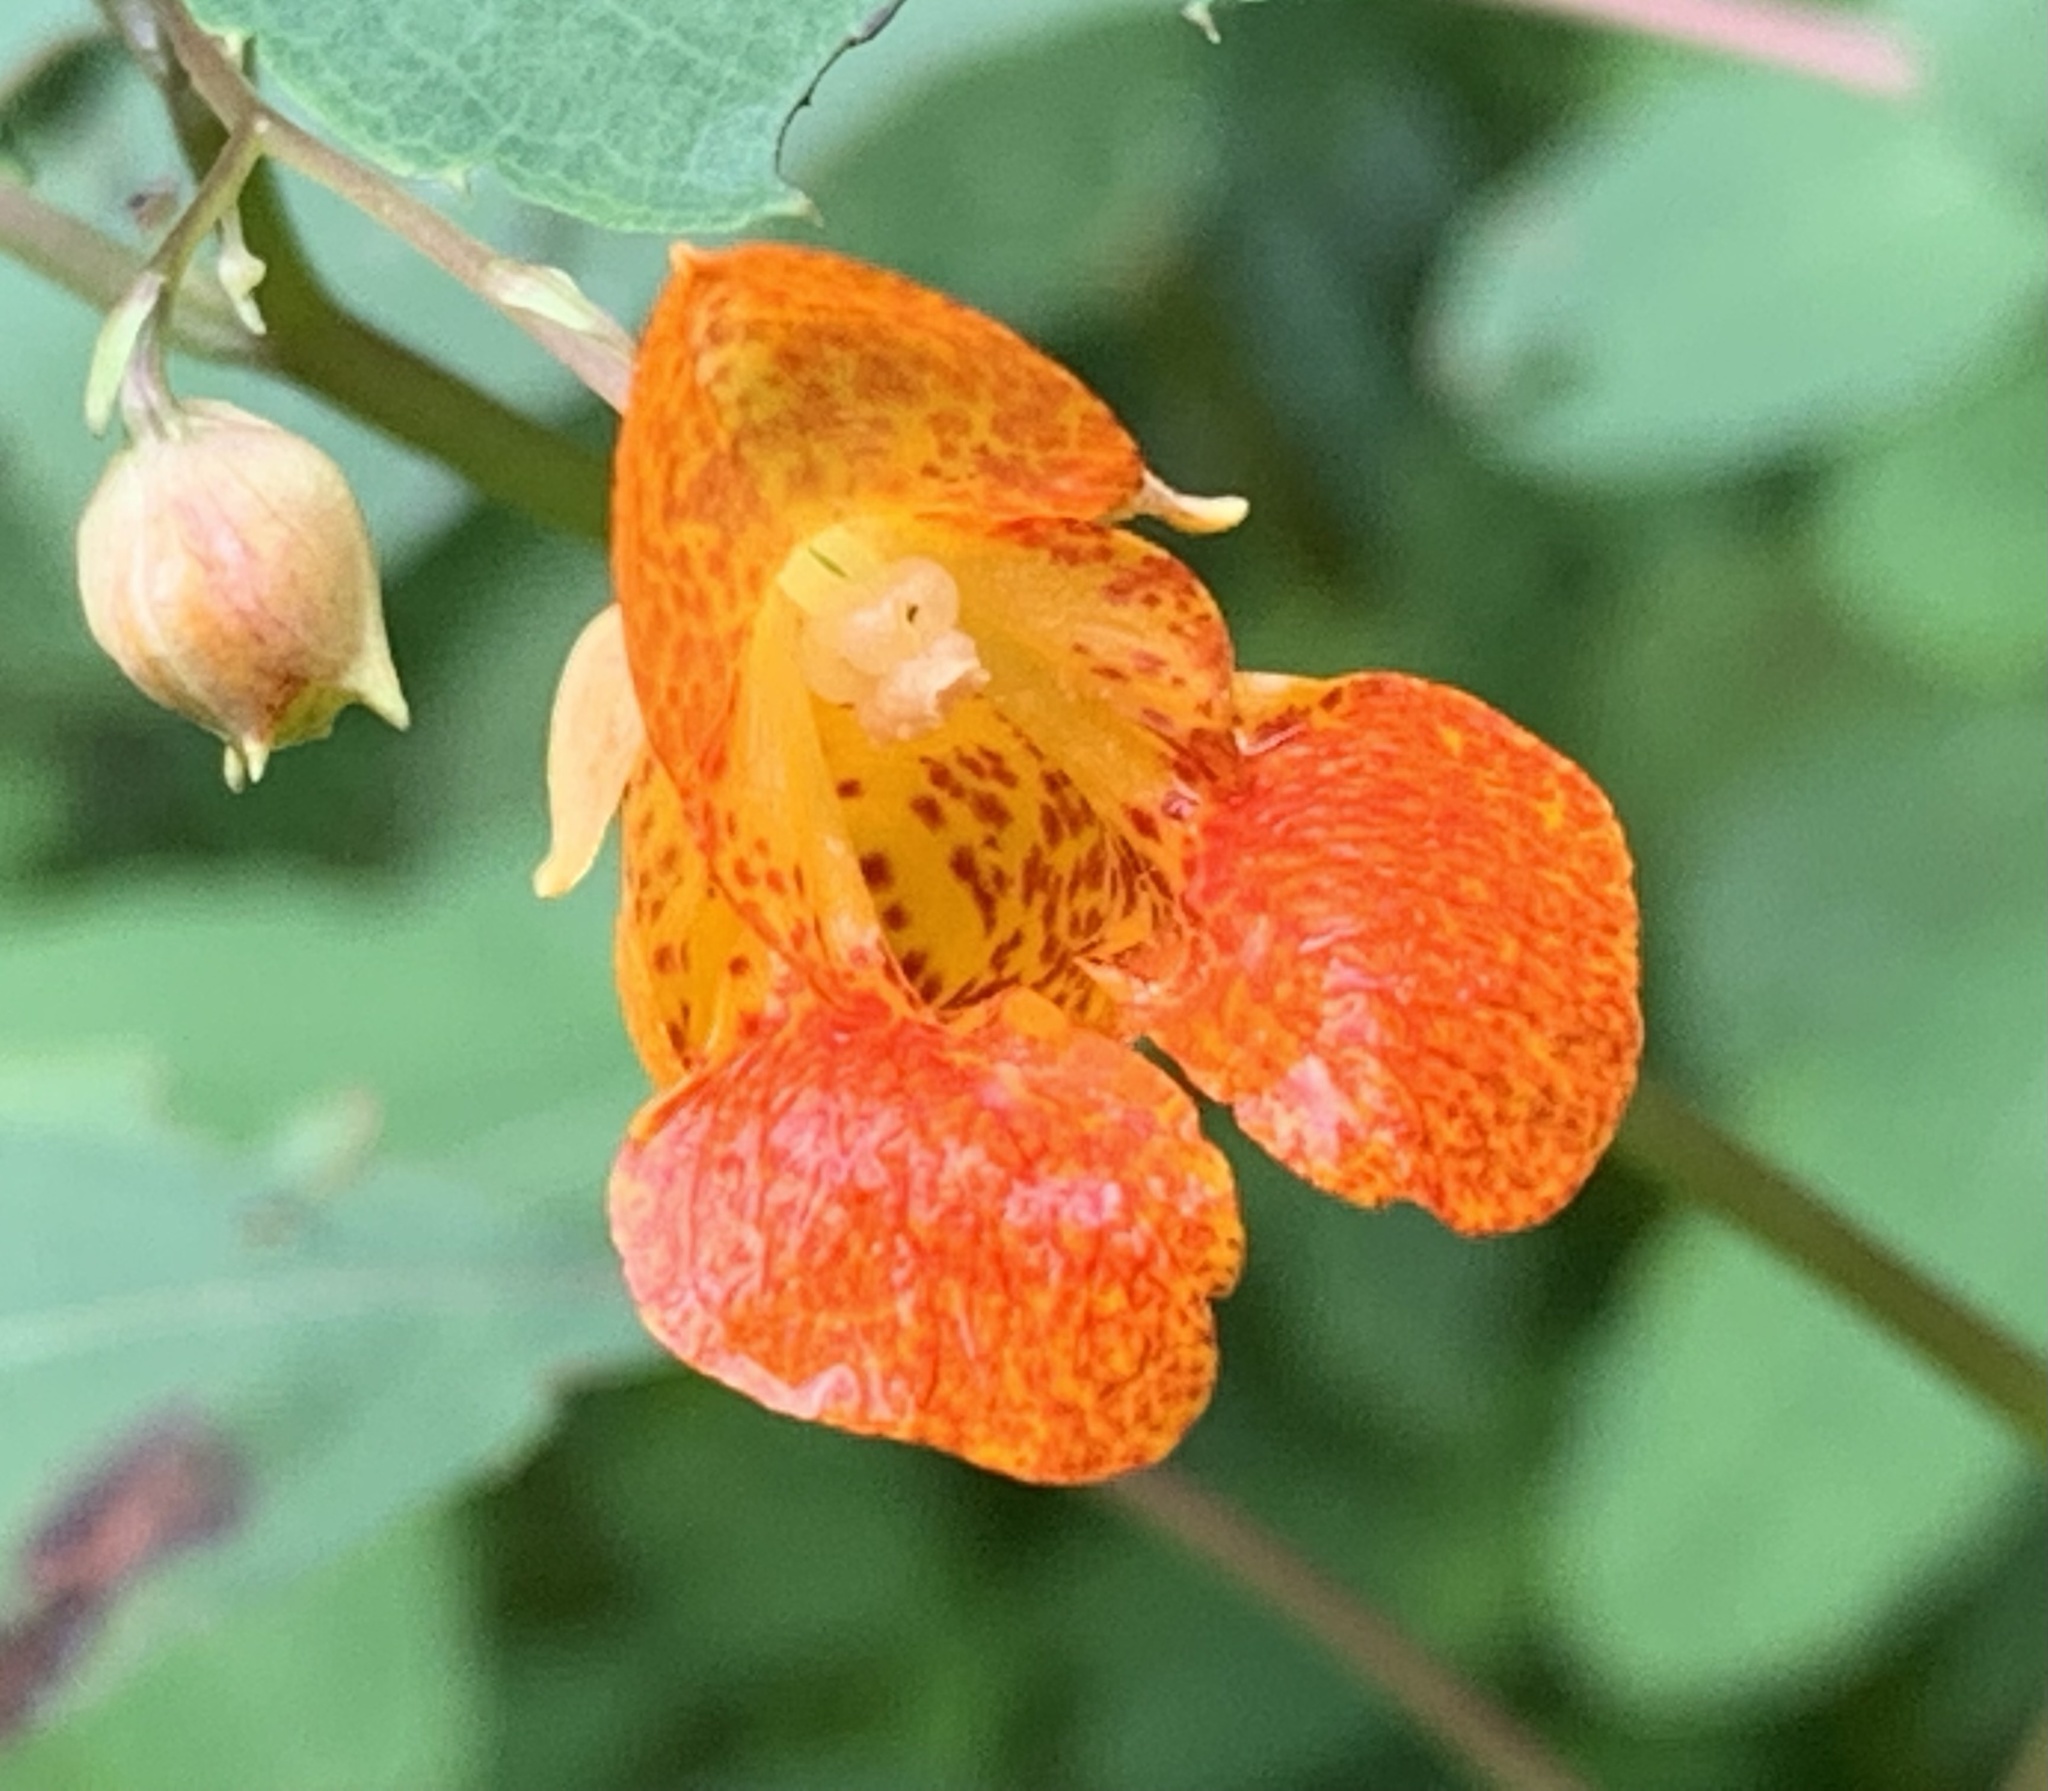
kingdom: Plantae
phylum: Tracheophyta
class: Magnoliopsida
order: Ericales
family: Balsaminaceae
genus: Impatiens
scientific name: Impatiens capensis
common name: Orange balsam
